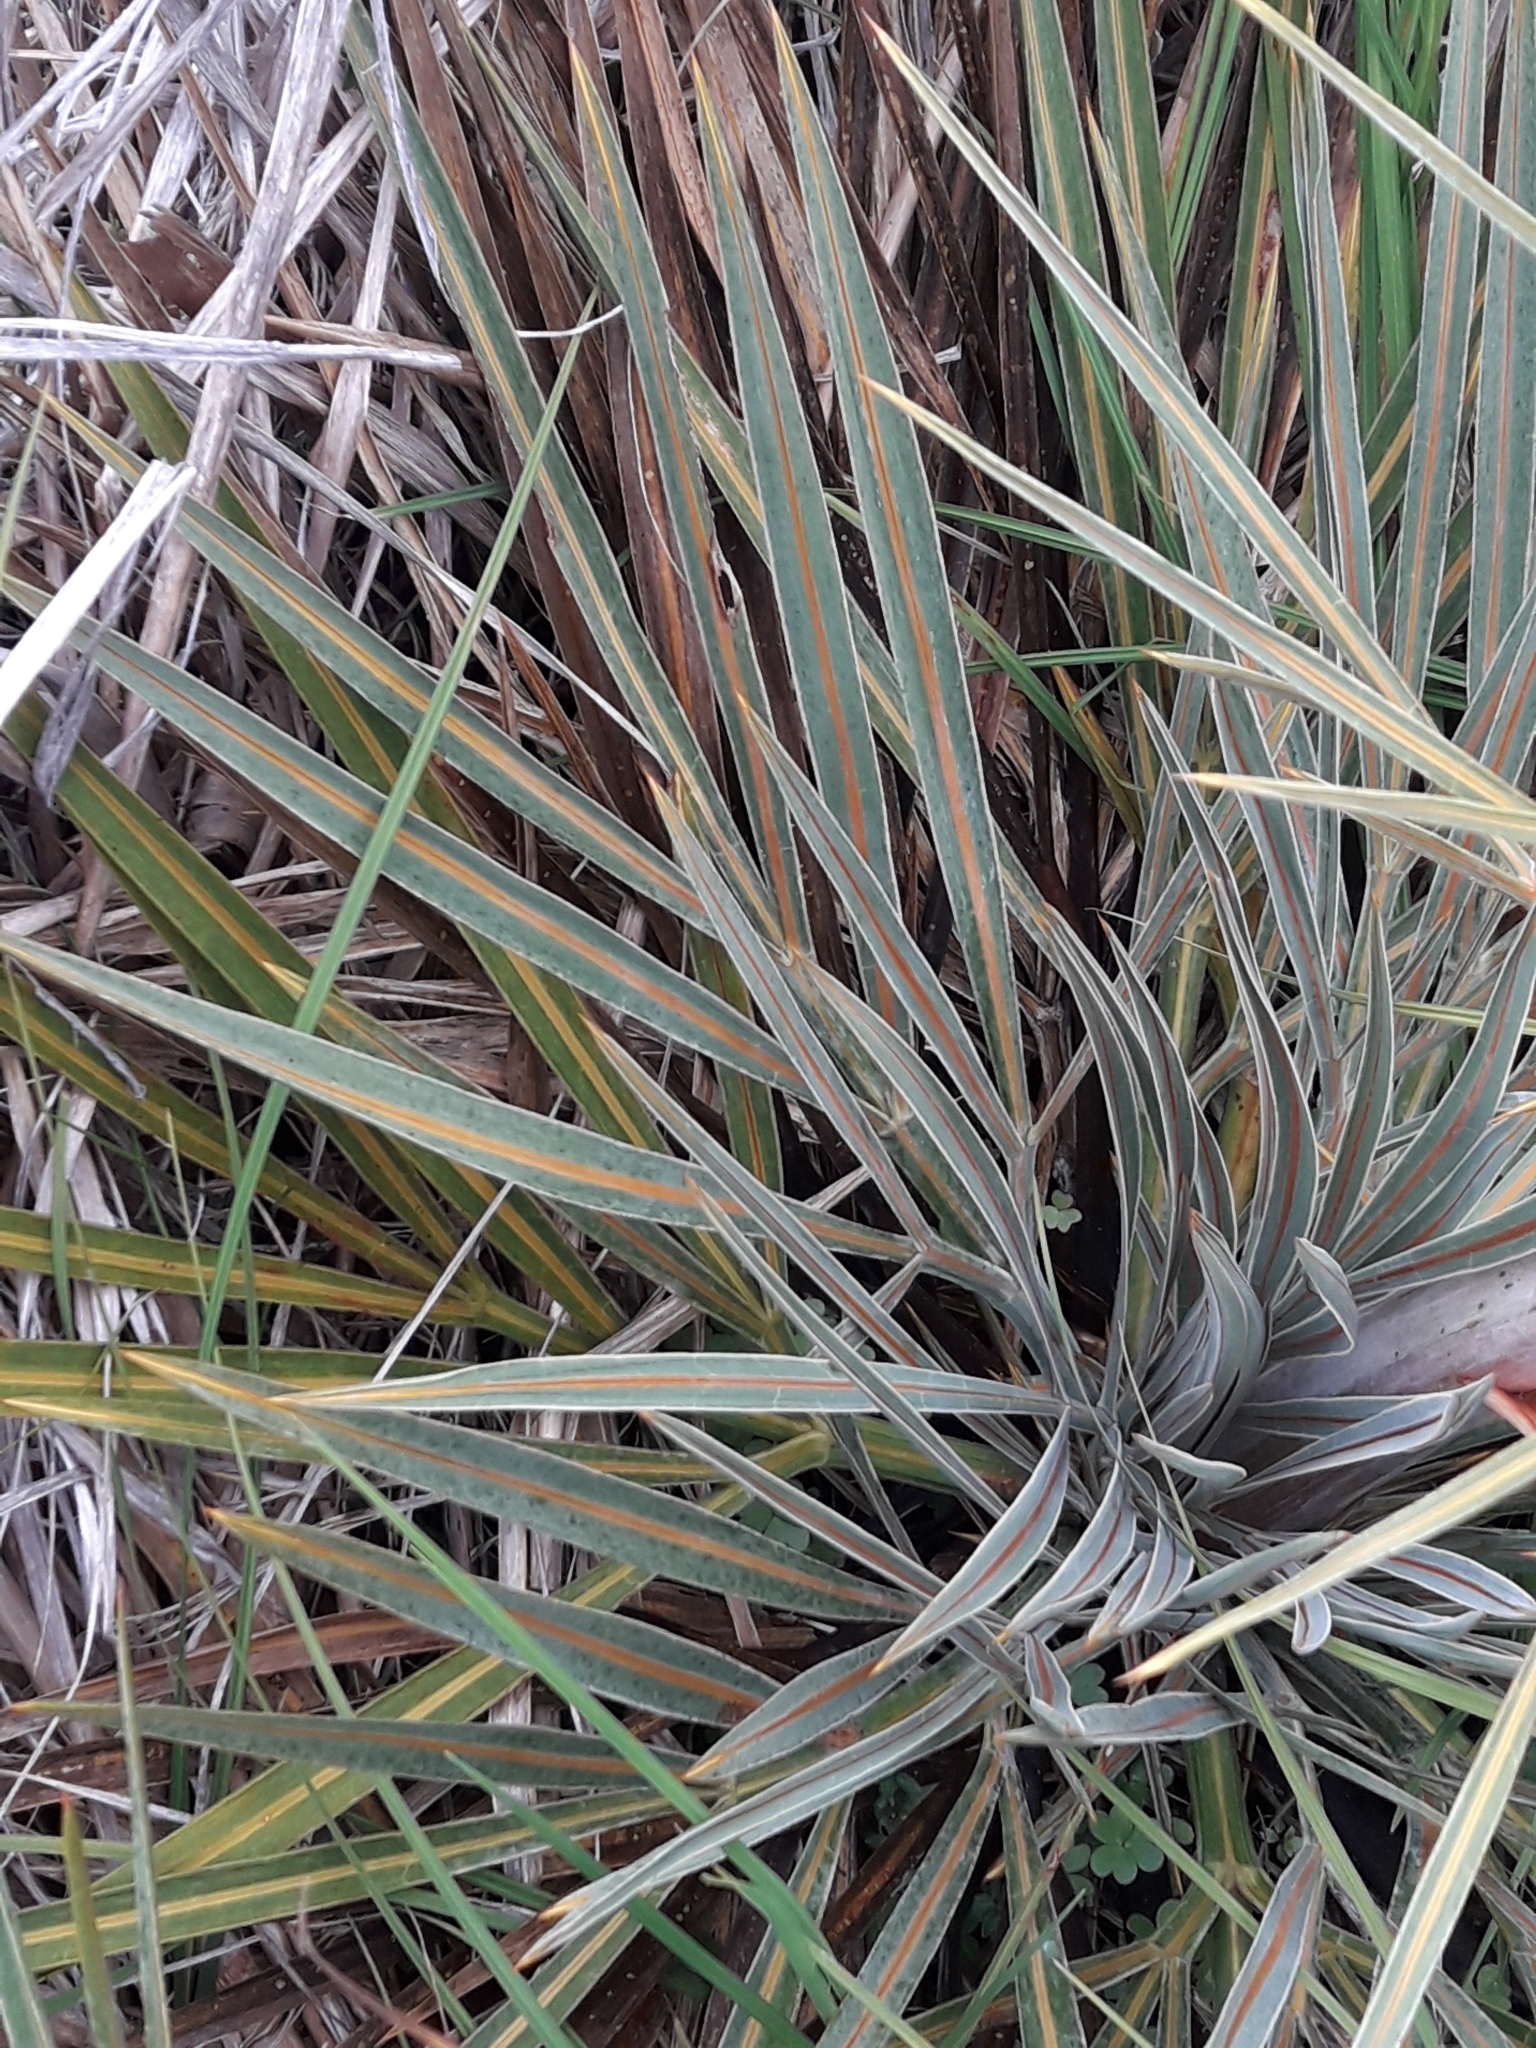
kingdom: Plantae
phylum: Tracheophyta
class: Magnoliopsida
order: Apiales
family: Apiaceae
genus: Aciphylla
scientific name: Aciphylla colensoi
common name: Colenso's spaniard
